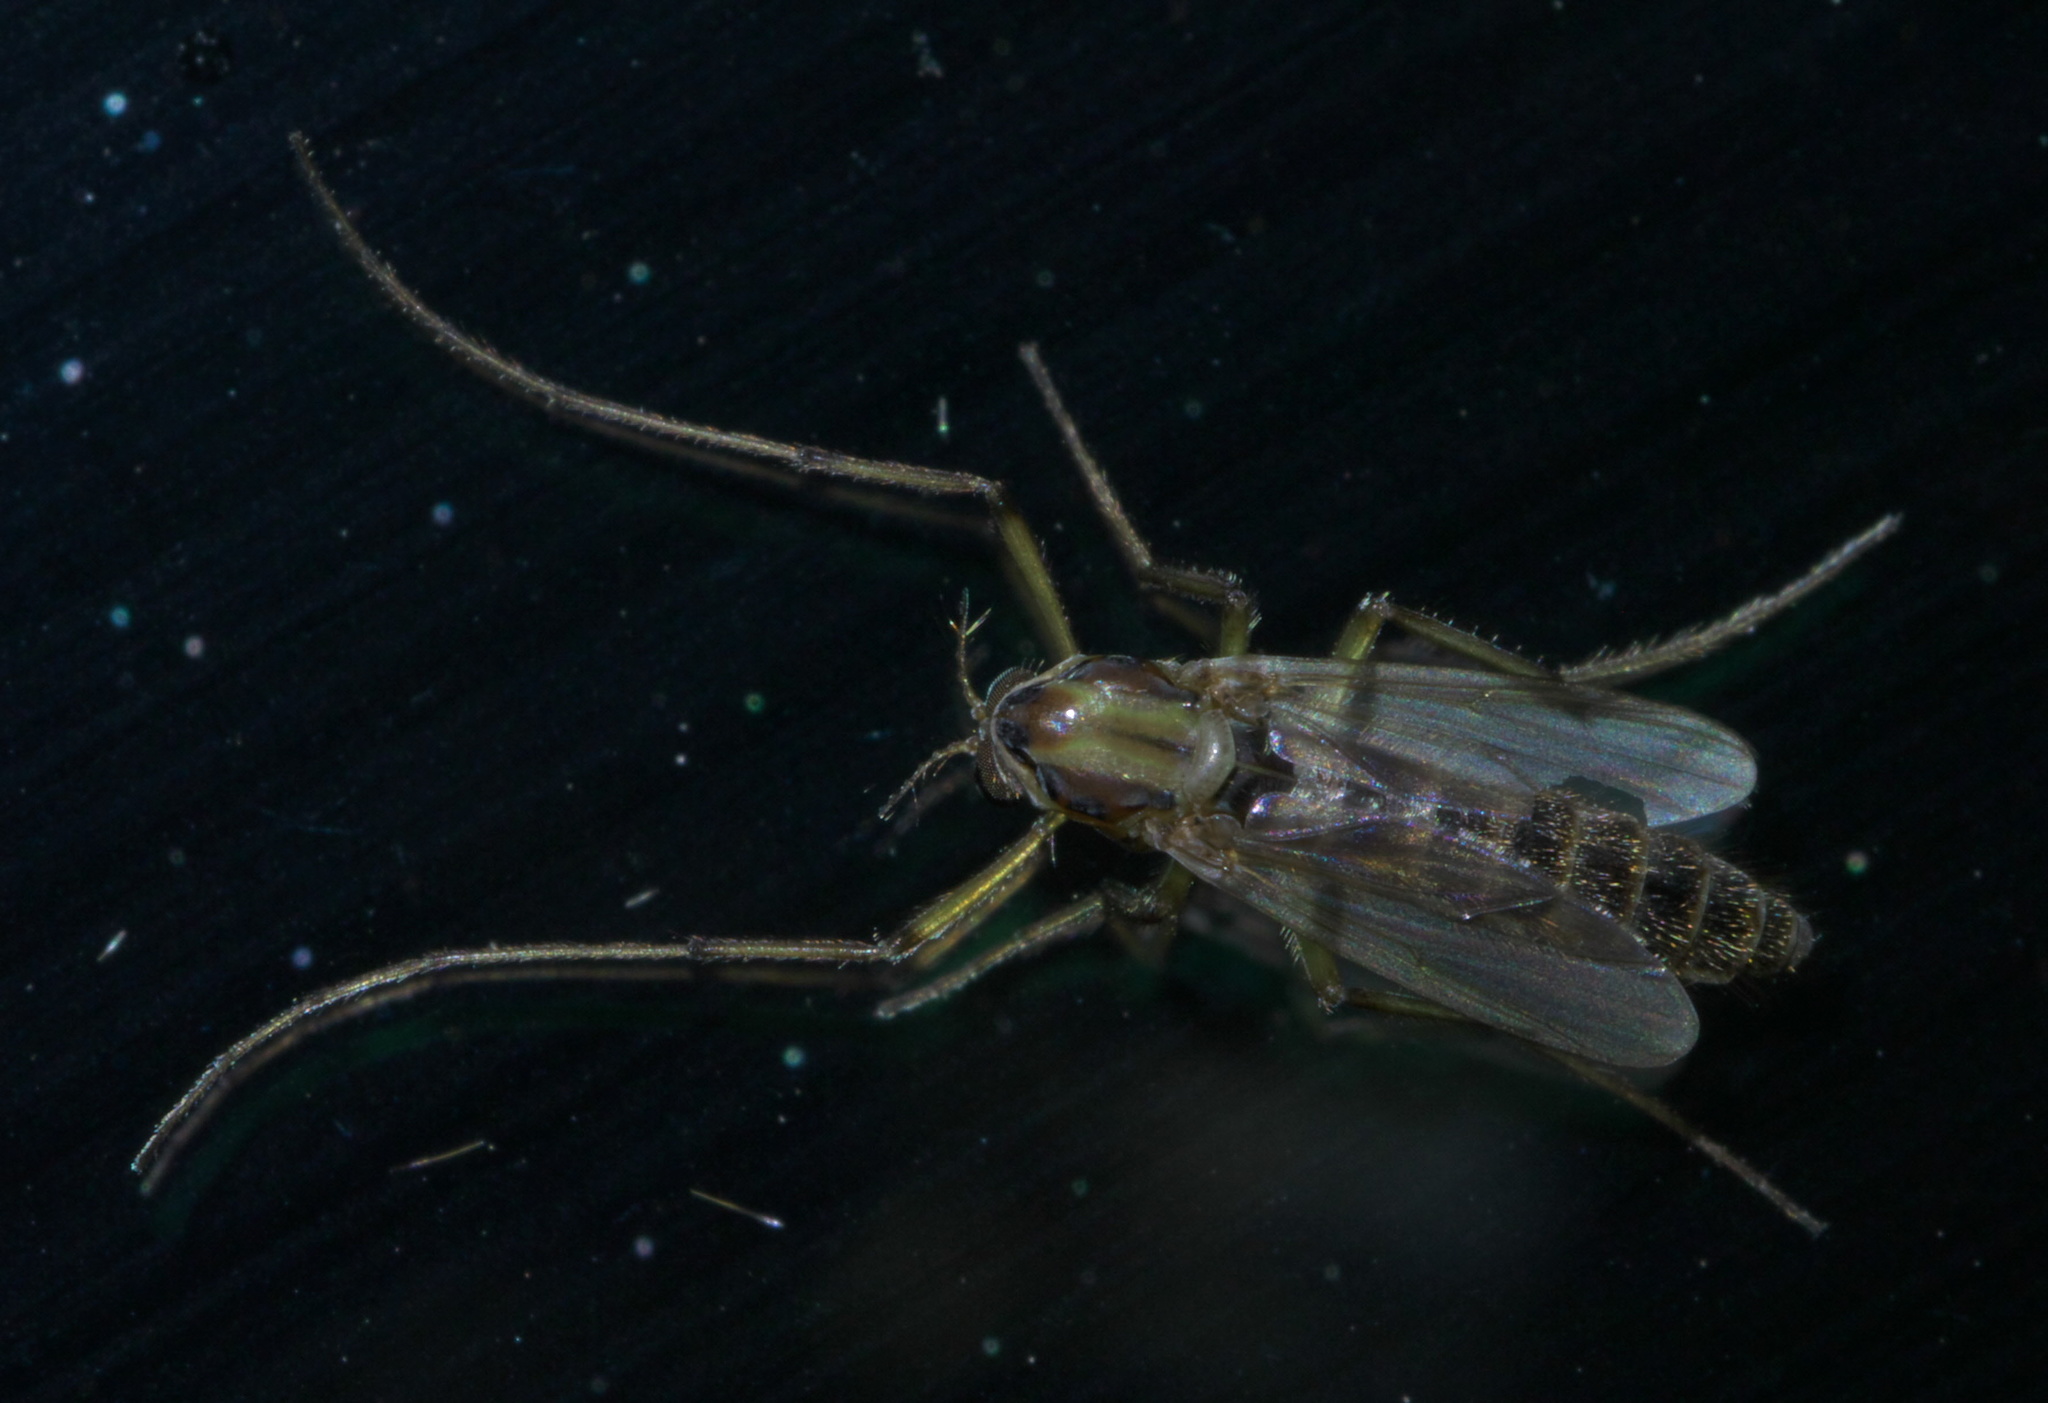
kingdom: Animalia
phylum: Arthropoda
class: Insecta
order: Diptera
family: Chironomidae
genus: Goeldichironomus
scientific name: Goeldichironomus carus
